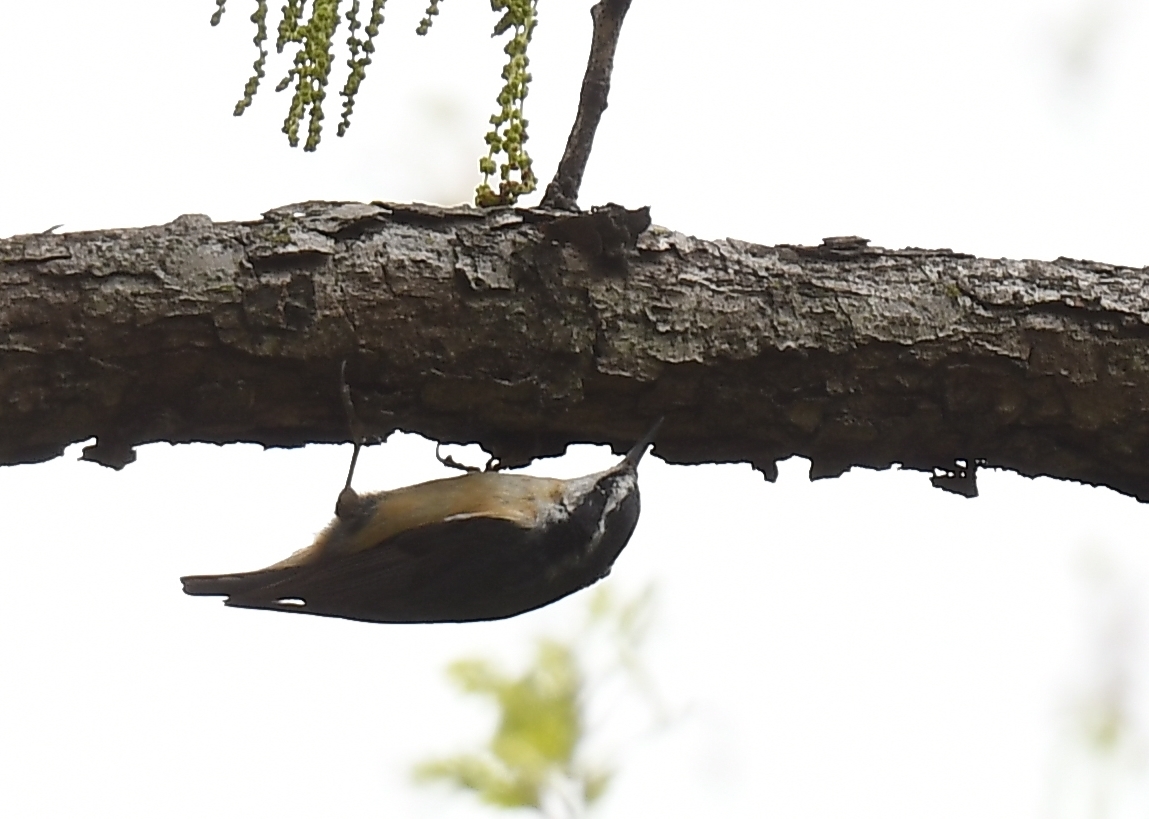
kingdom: Animalia
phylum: Chordata
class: Aves
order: Passeriformes
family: Sittidae
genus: Sitta
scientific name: Sitta canadensis
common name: Red-breasted nuthatch
